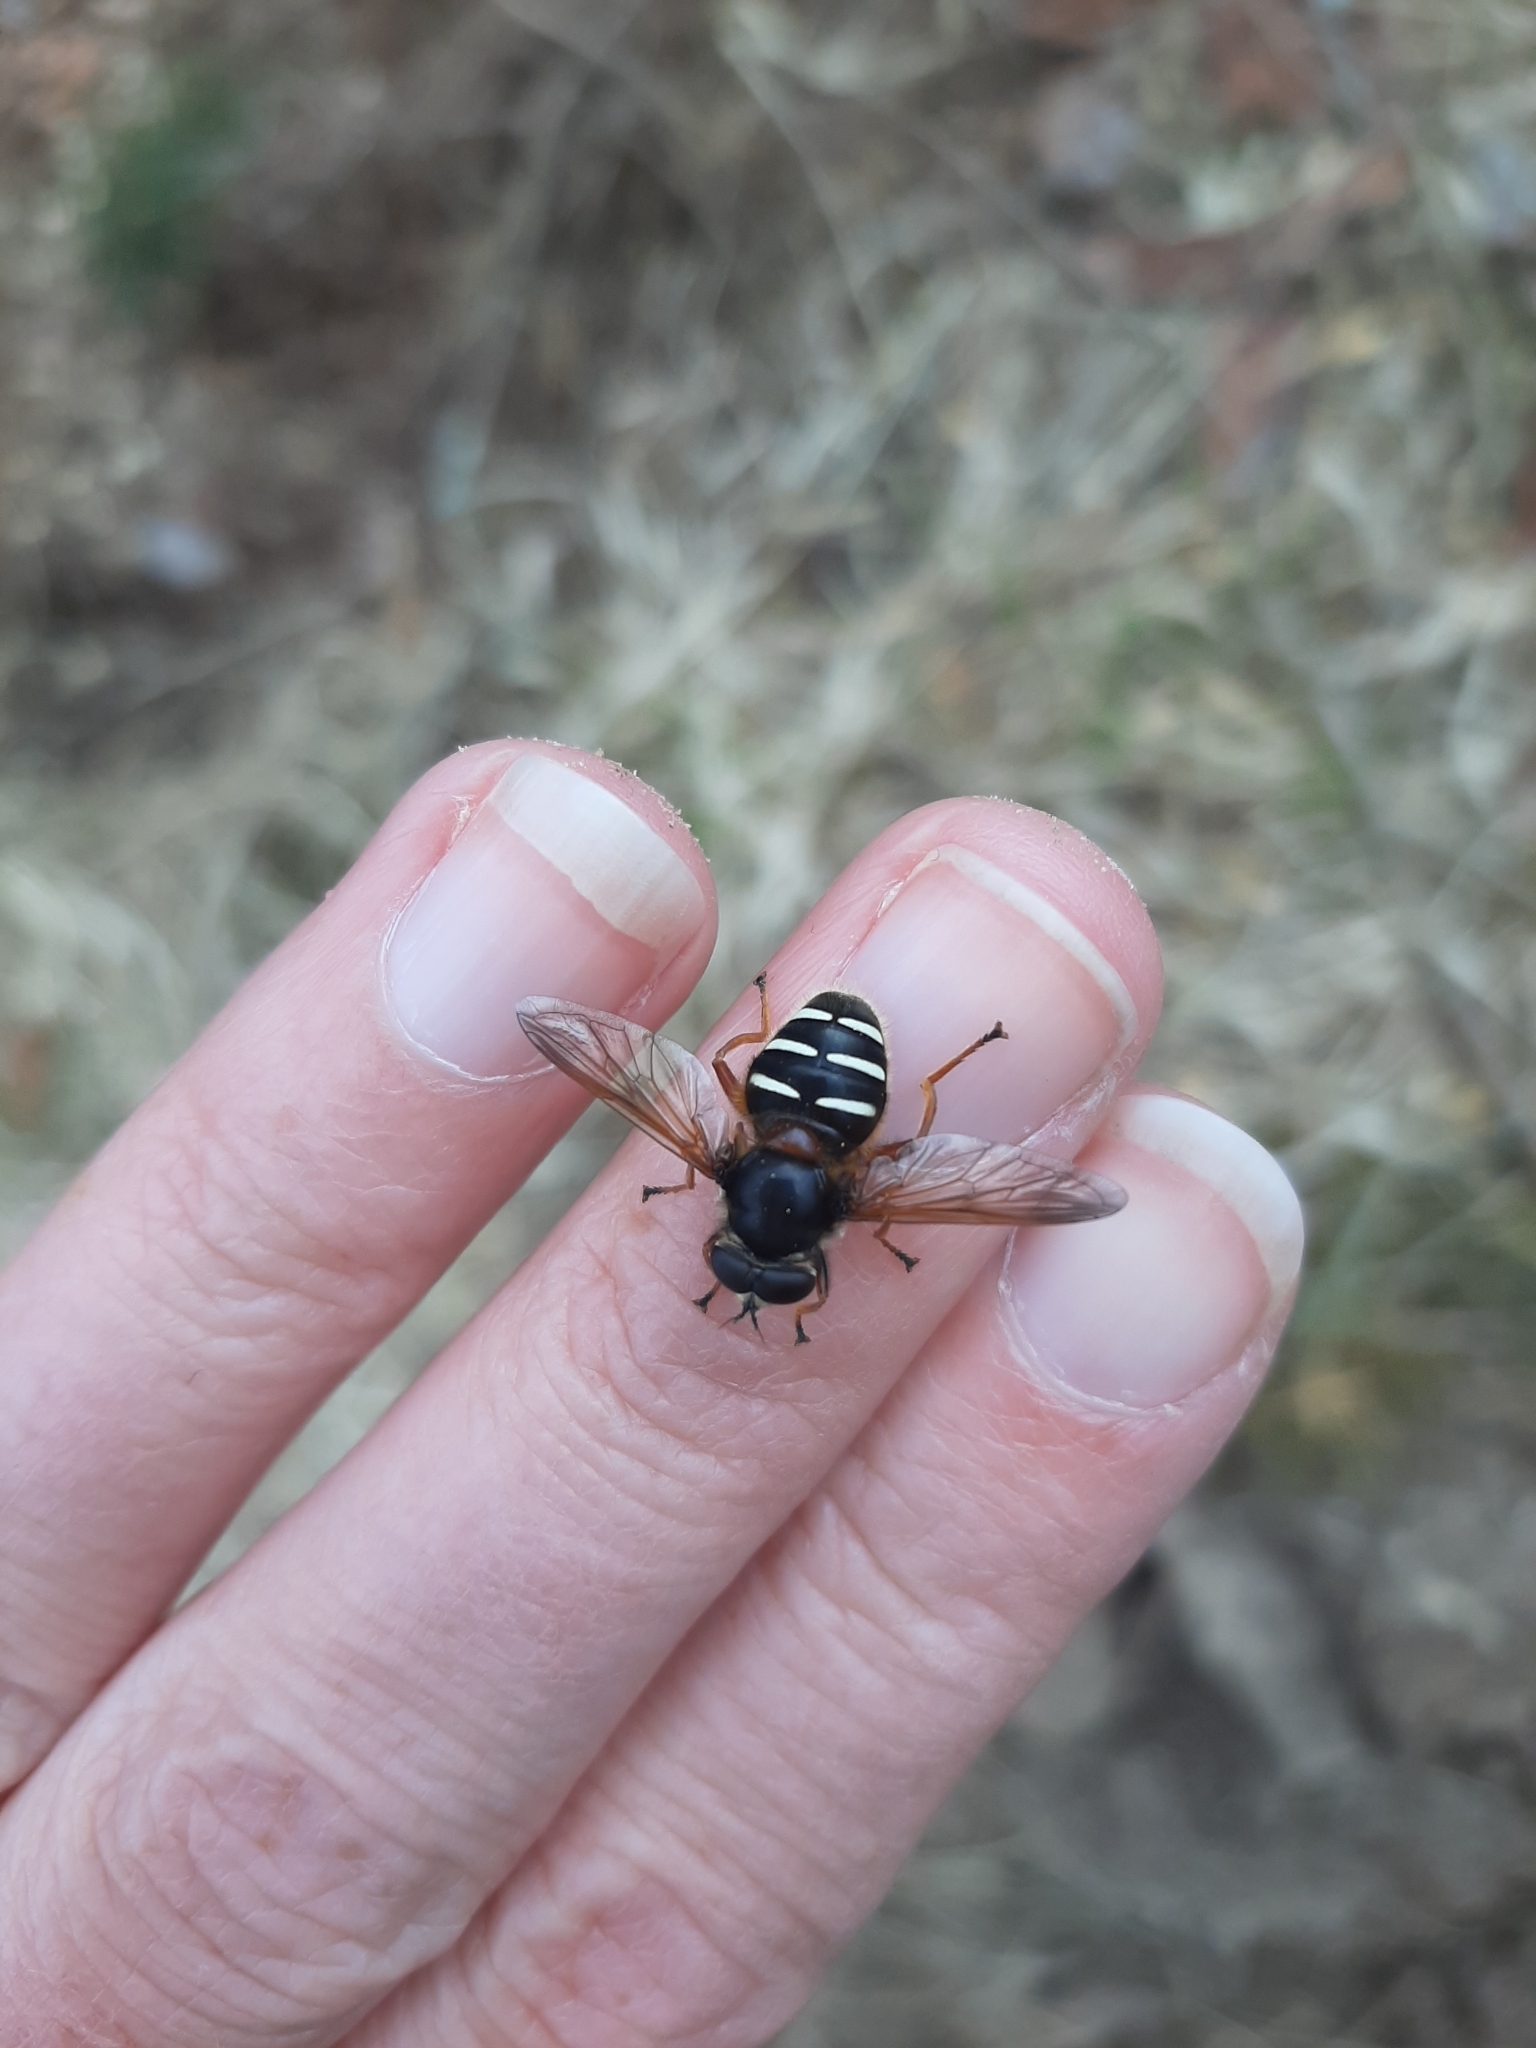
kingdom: Animalia
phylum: Arthropoda
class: Insecta
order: Diptera
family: Syrphidae
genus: Sericomyia
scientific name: Sericomyia lappona
